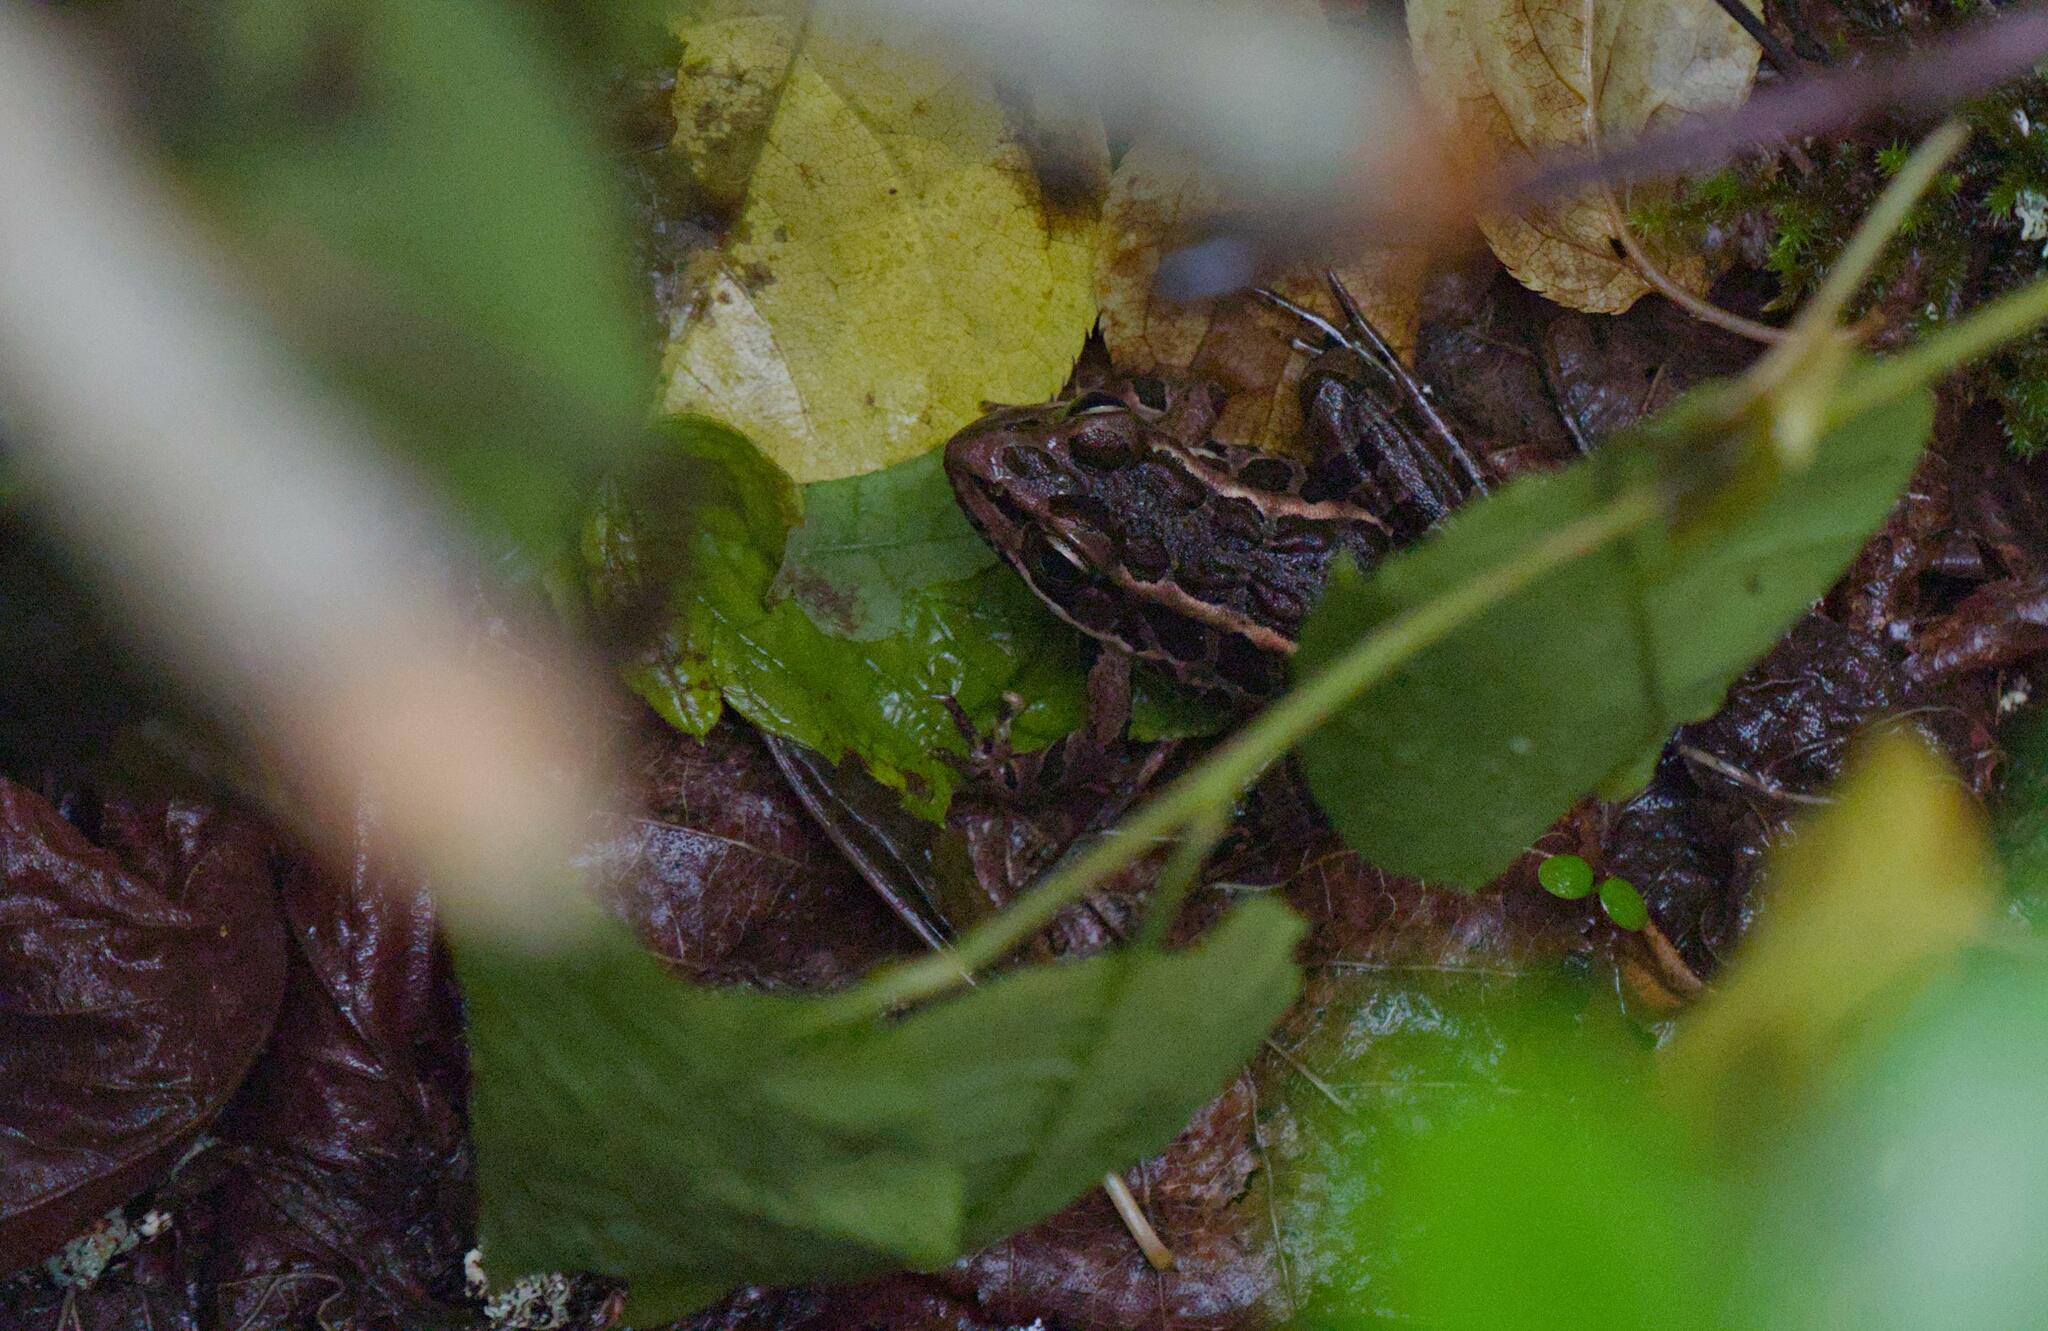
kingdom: Animalia
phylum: Chordata
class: Amphibia
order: Anura
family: Ranidae
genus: Lithobates
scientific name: Lithobates palustris
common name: Pickerel frog
